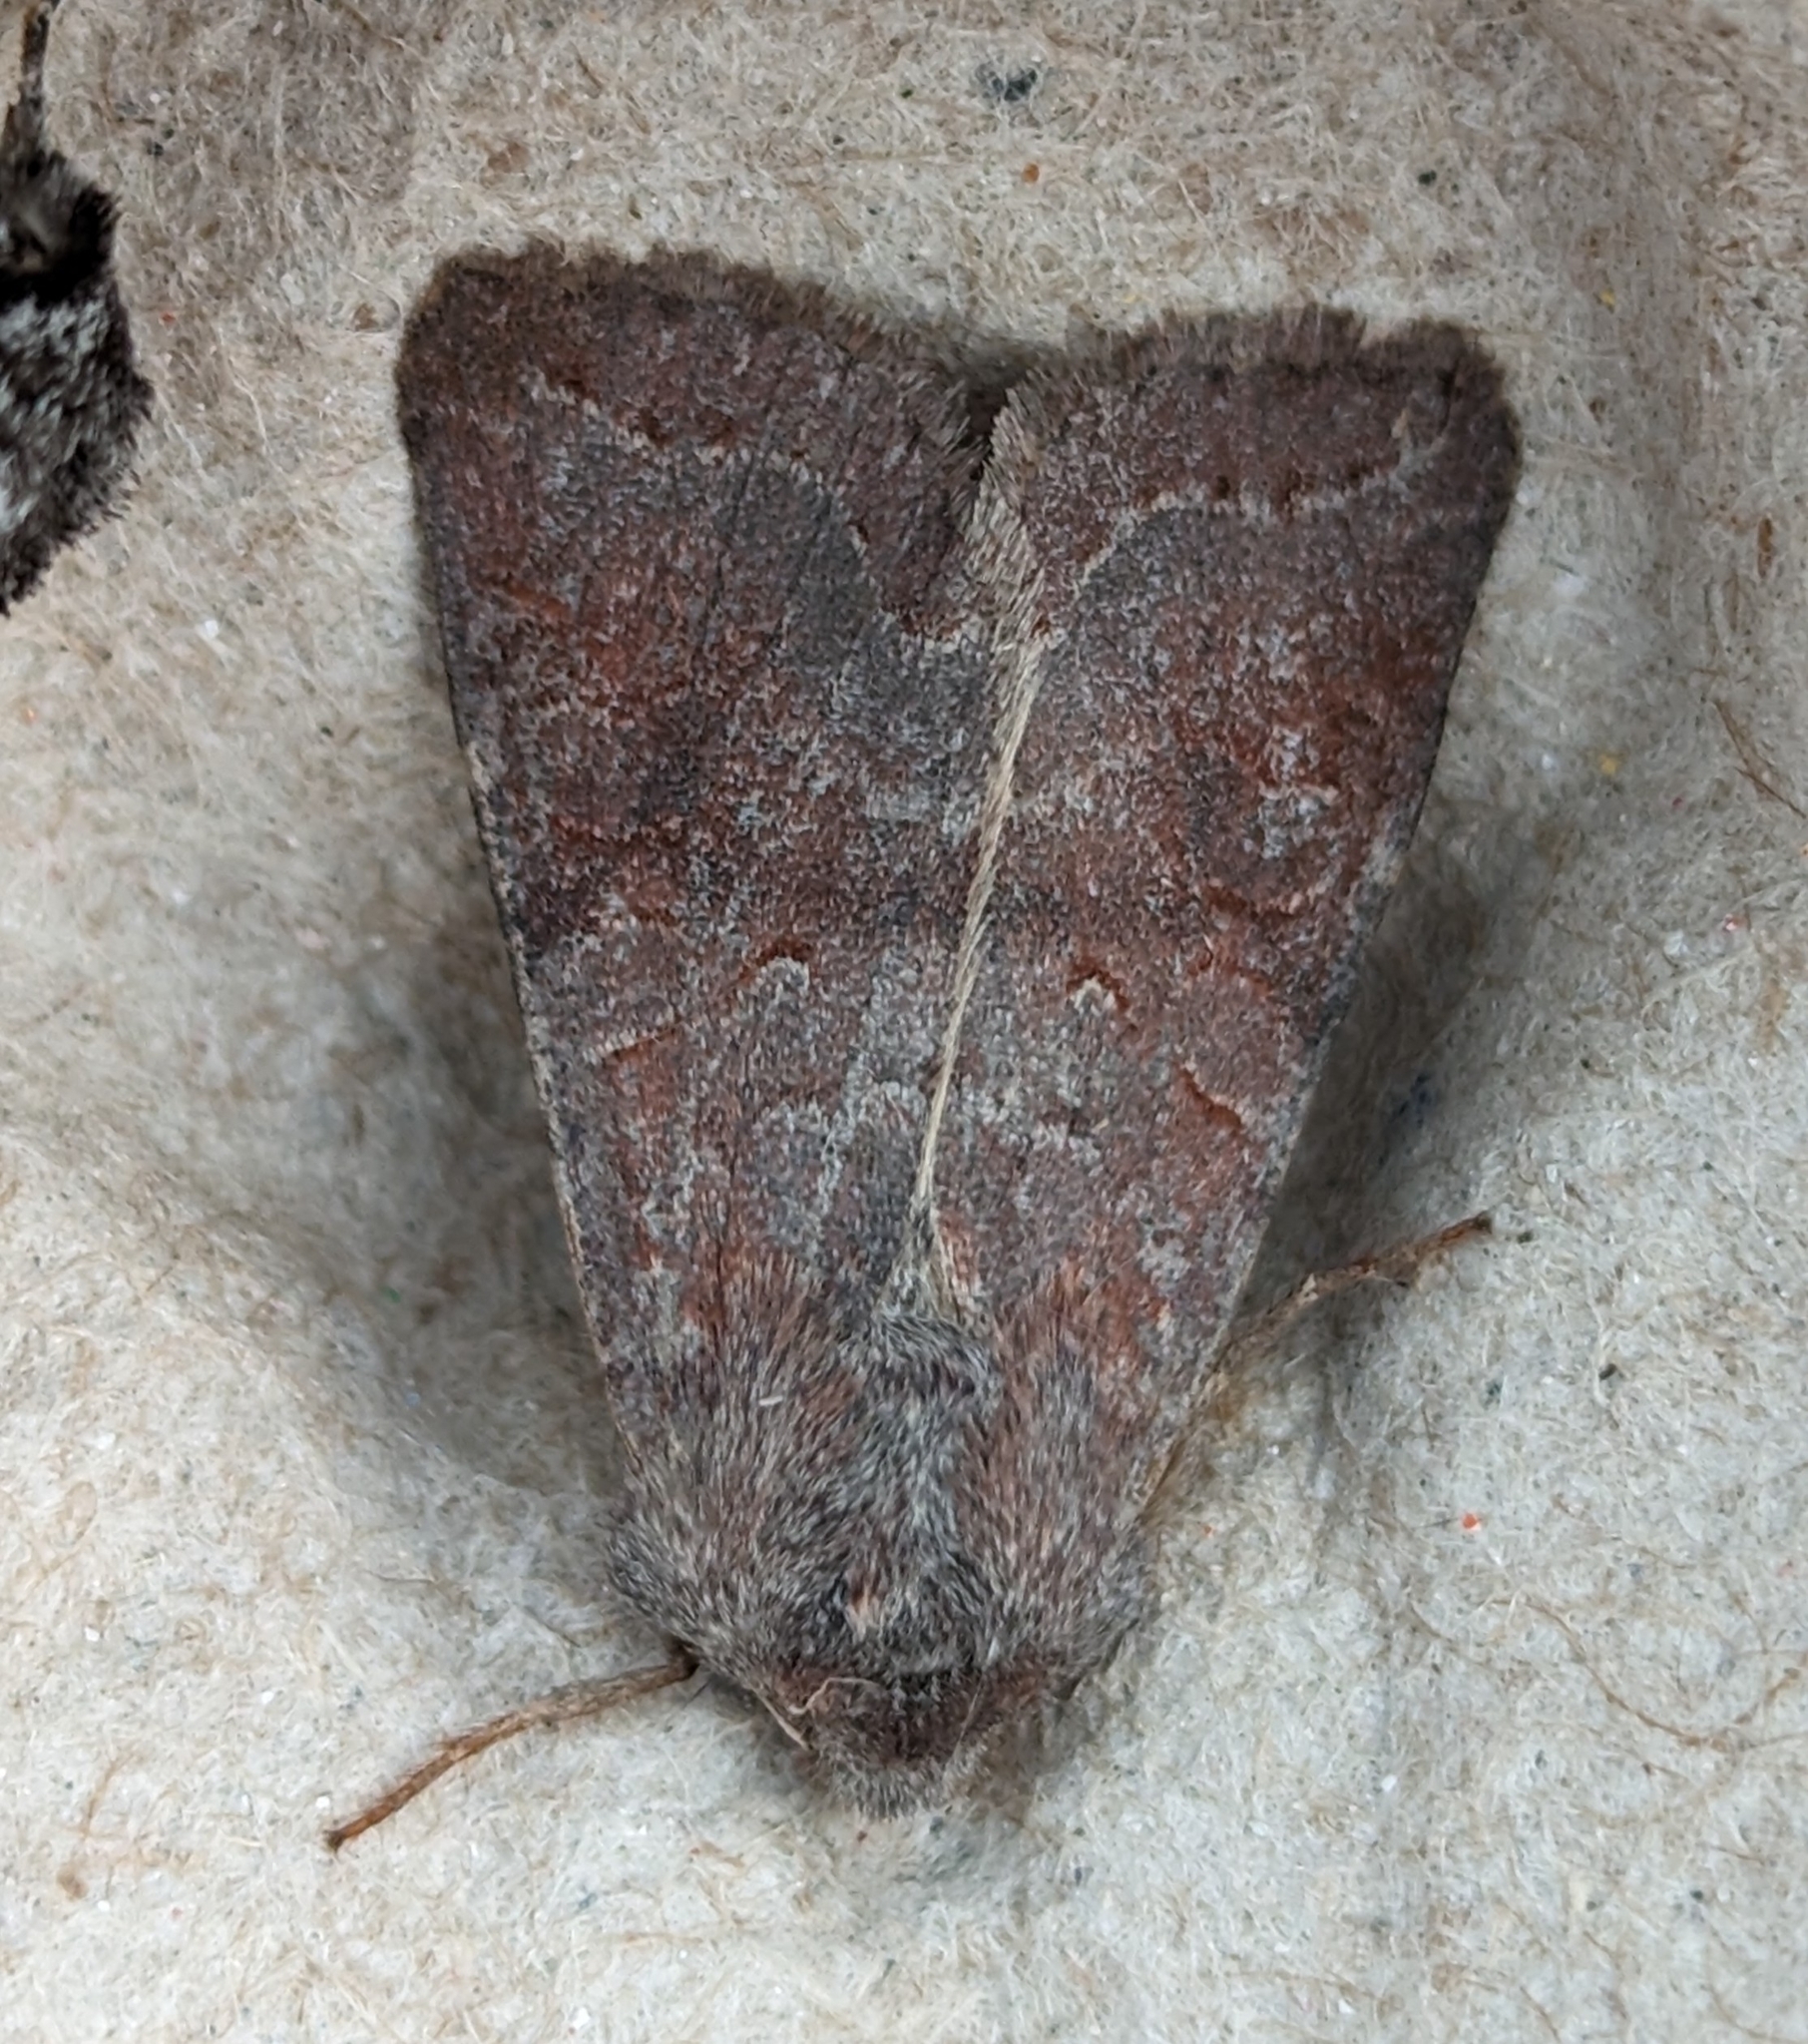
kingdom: Animalia
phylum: Arthropoda
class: Insecta
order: Lepidoptera
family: Noctuidae
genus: Orthosia
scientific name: Orthosia revicta
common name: Rusty whitesided caterpillar
